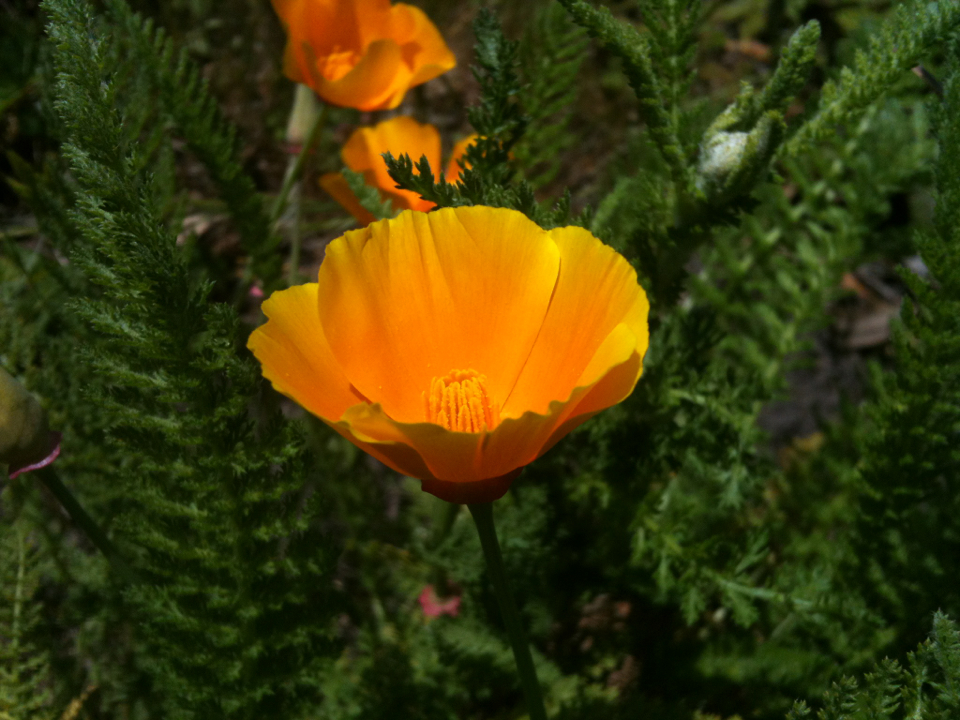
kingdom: Plantae
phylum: Tracheophyta
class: Magnoliopsida
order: Ranunculales
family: Papaveraceae
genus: Eschscholzia
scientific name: Eschscholzia californica
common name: California poppy
